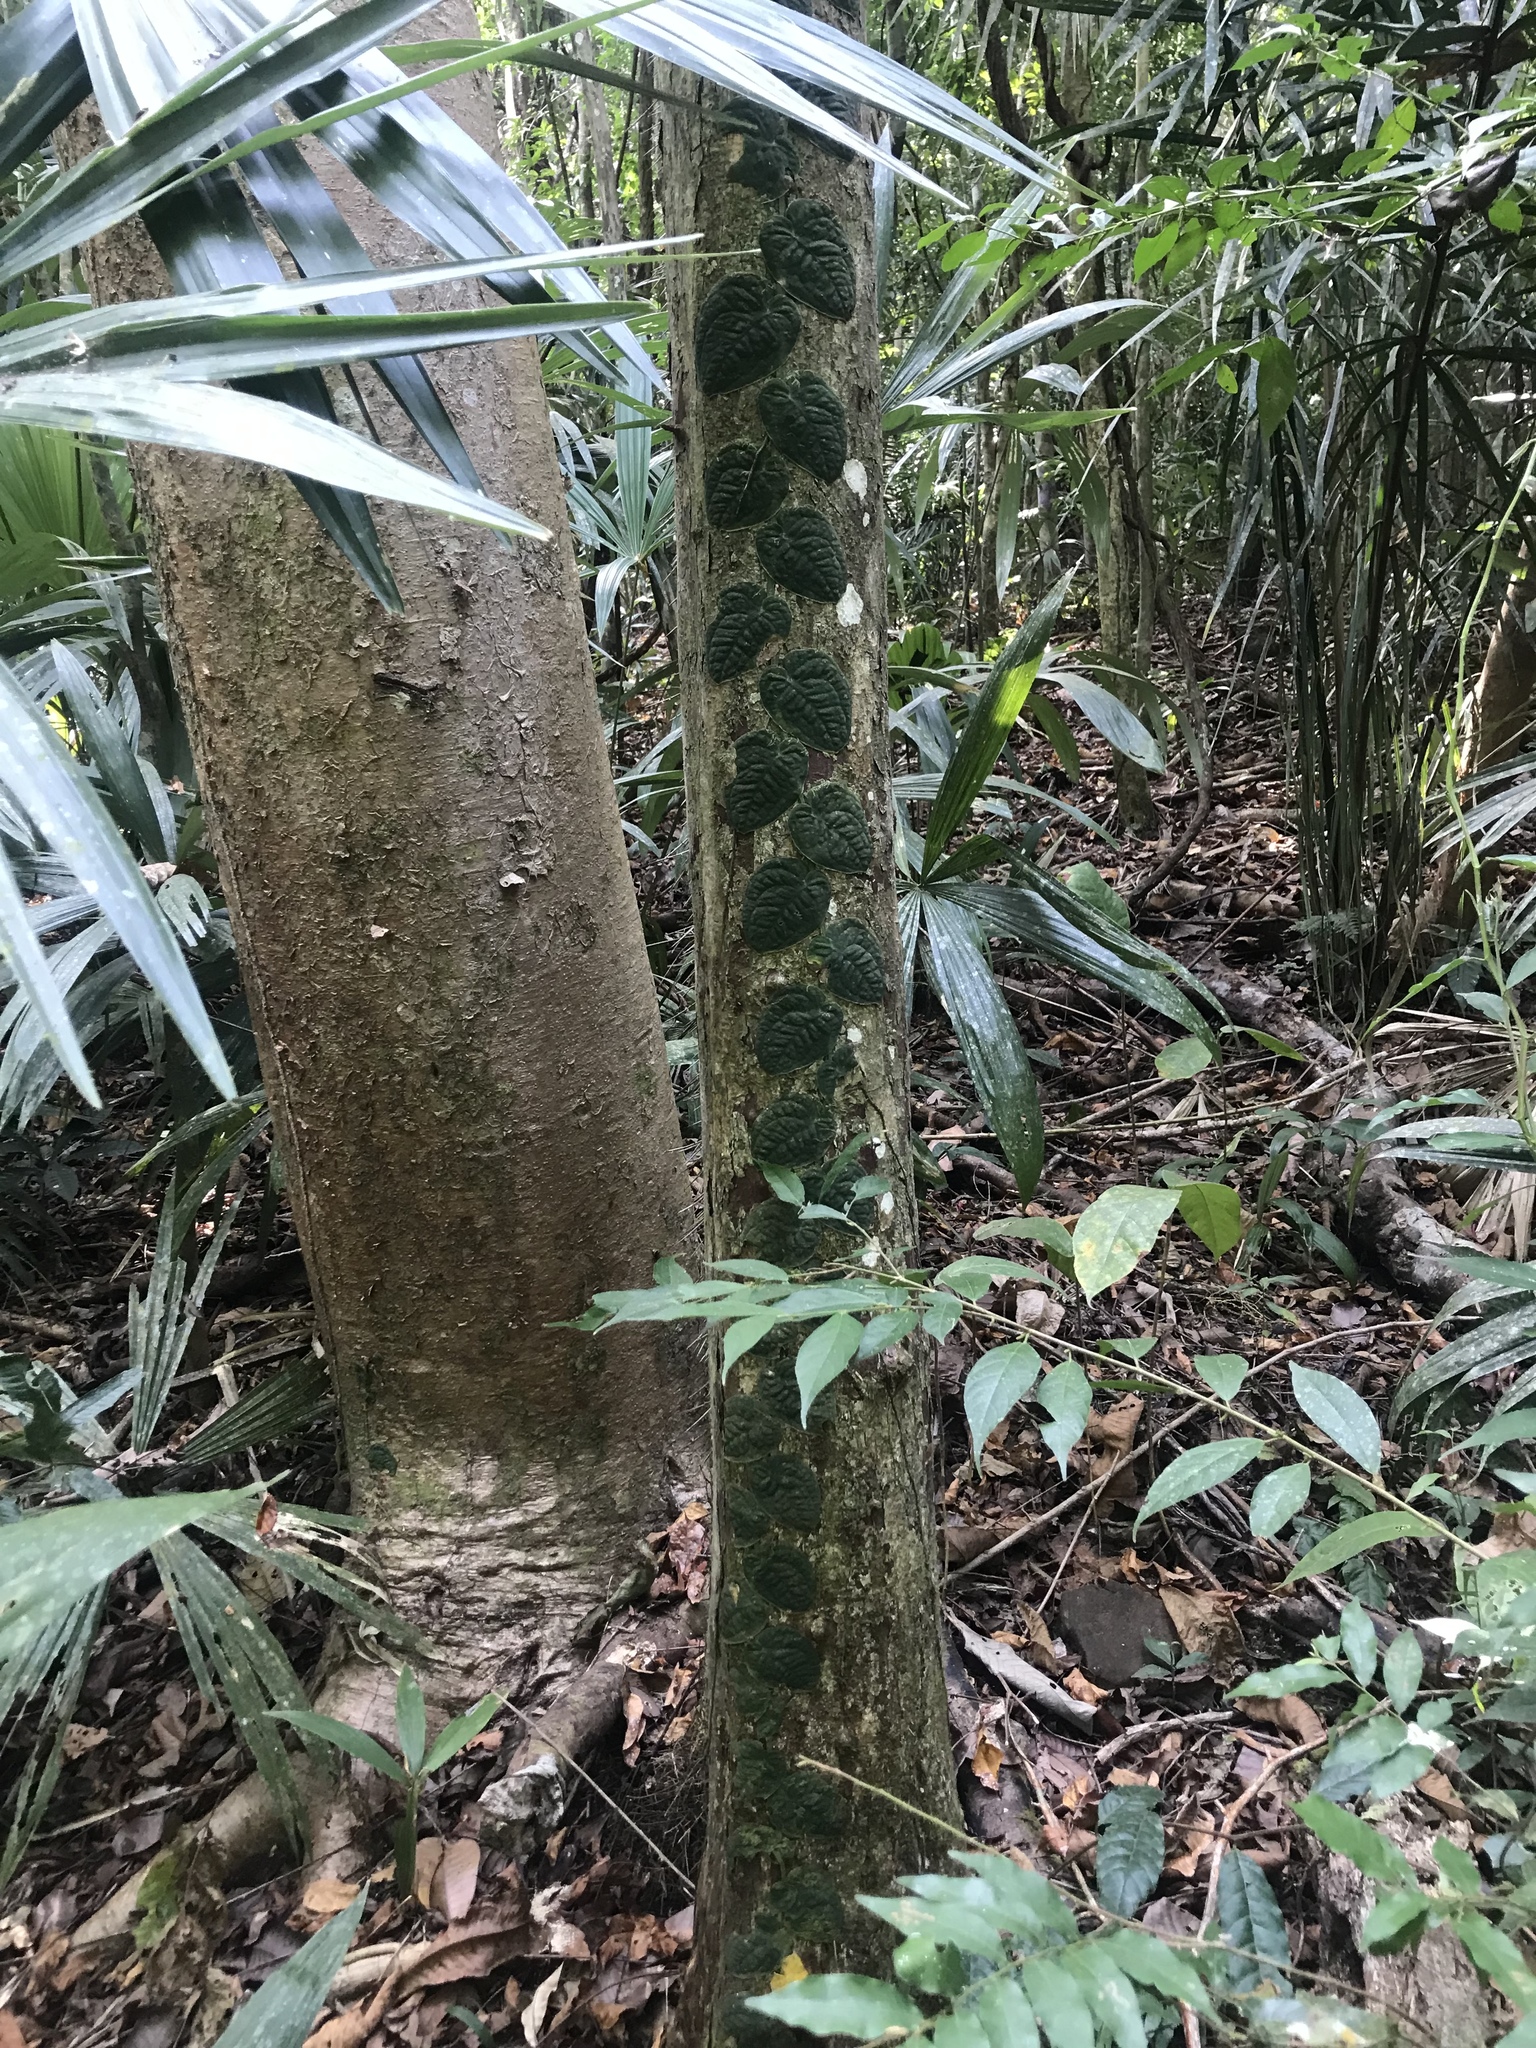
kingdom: Plantae
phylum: Tracheophyta
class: Liliopsida
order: Alismatales
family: Araceae
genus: Monstera
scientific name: Monstera dubia
